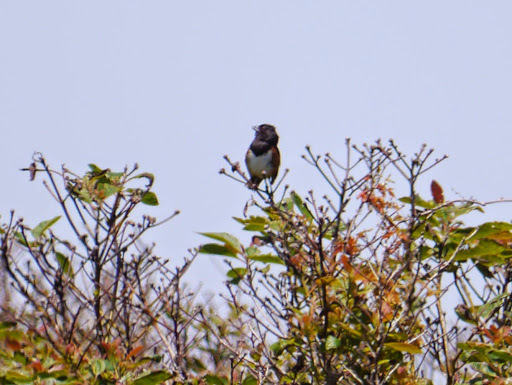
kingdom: Animalia
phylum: Chordata
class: Aves
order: Passeriformes
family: Passerellidae
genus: Pipilo
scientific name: Pipilo erythrophthalmus
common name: Eastern towhee
